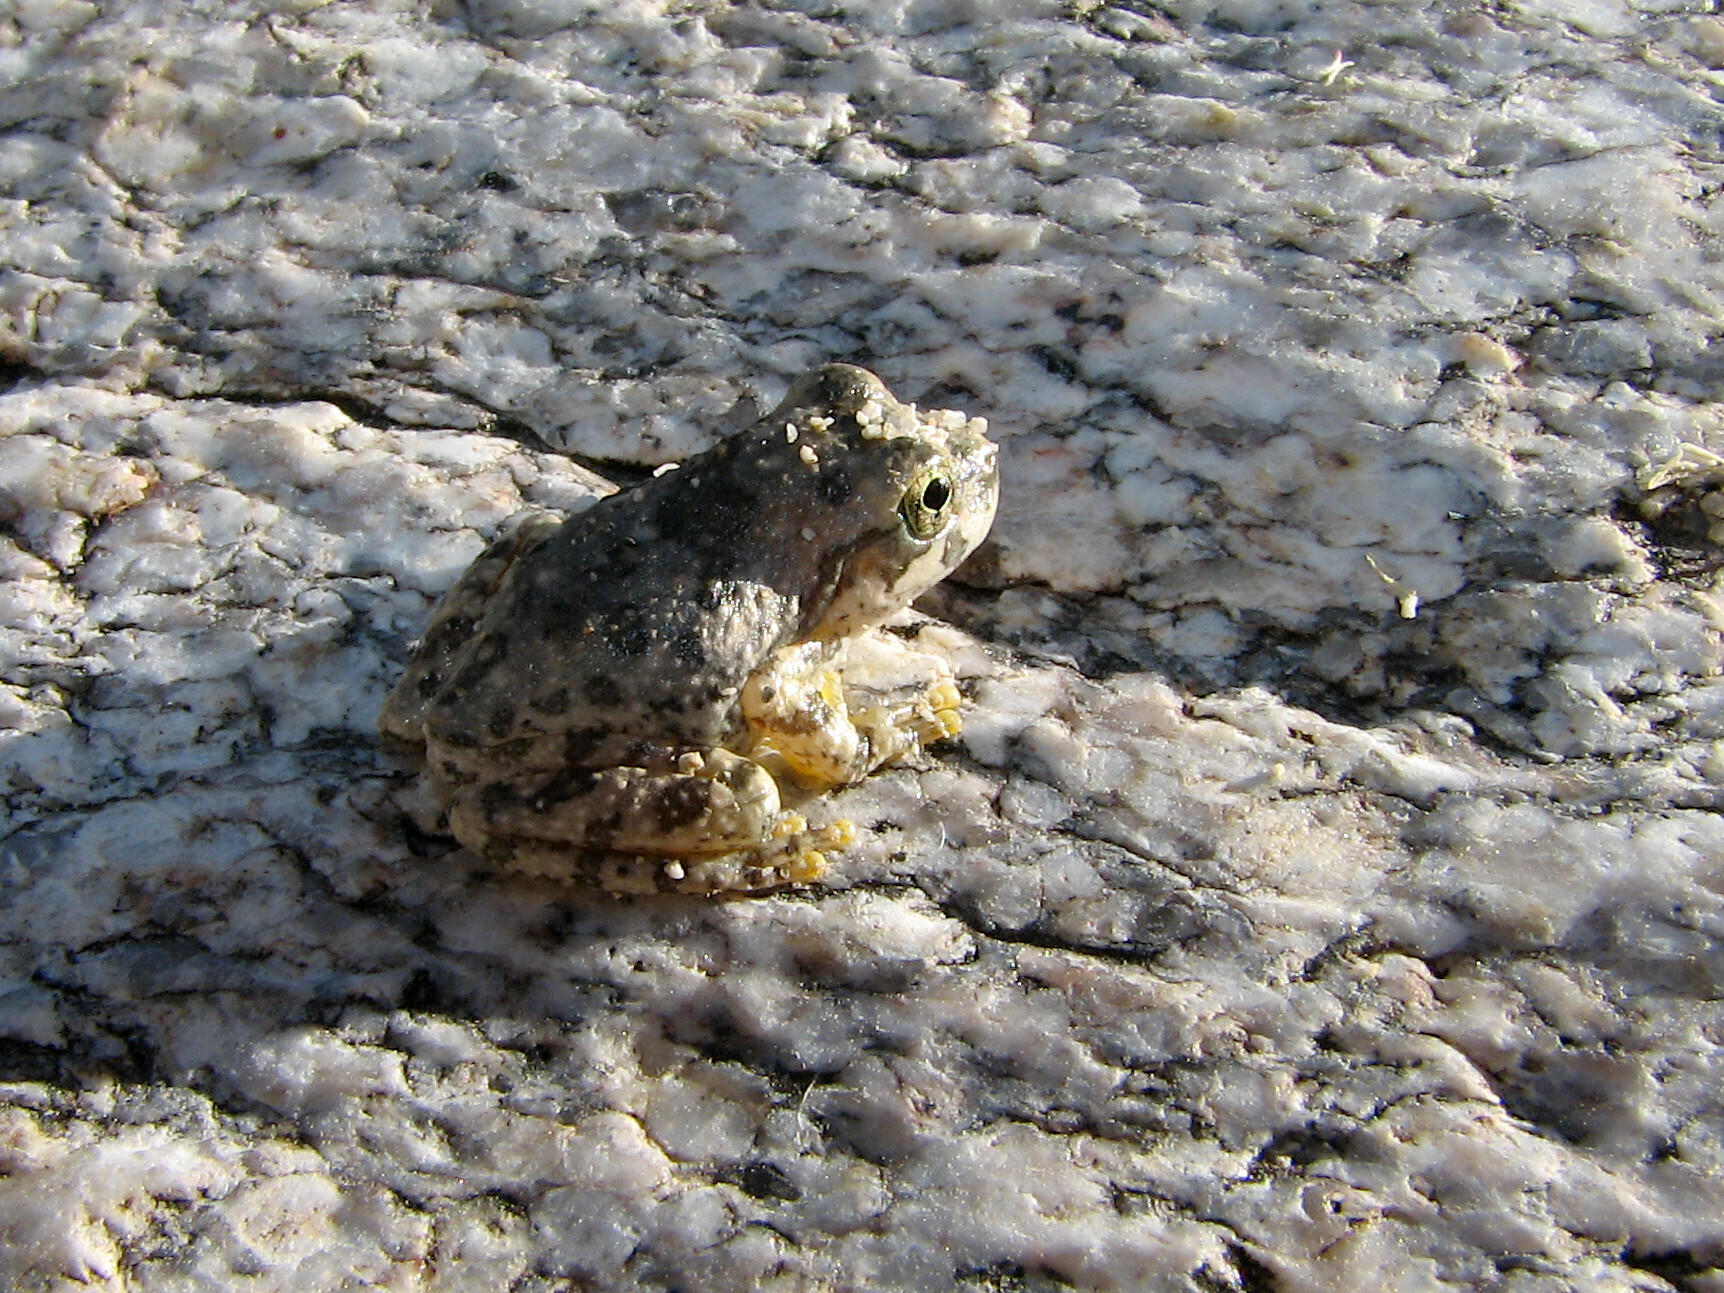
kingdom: Animalia
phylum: Chordata
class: Amphibia
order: Anura
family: Hylidae
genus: Dryophytes
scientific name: Dryophytes arenicolor
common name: Canyon treefrog
